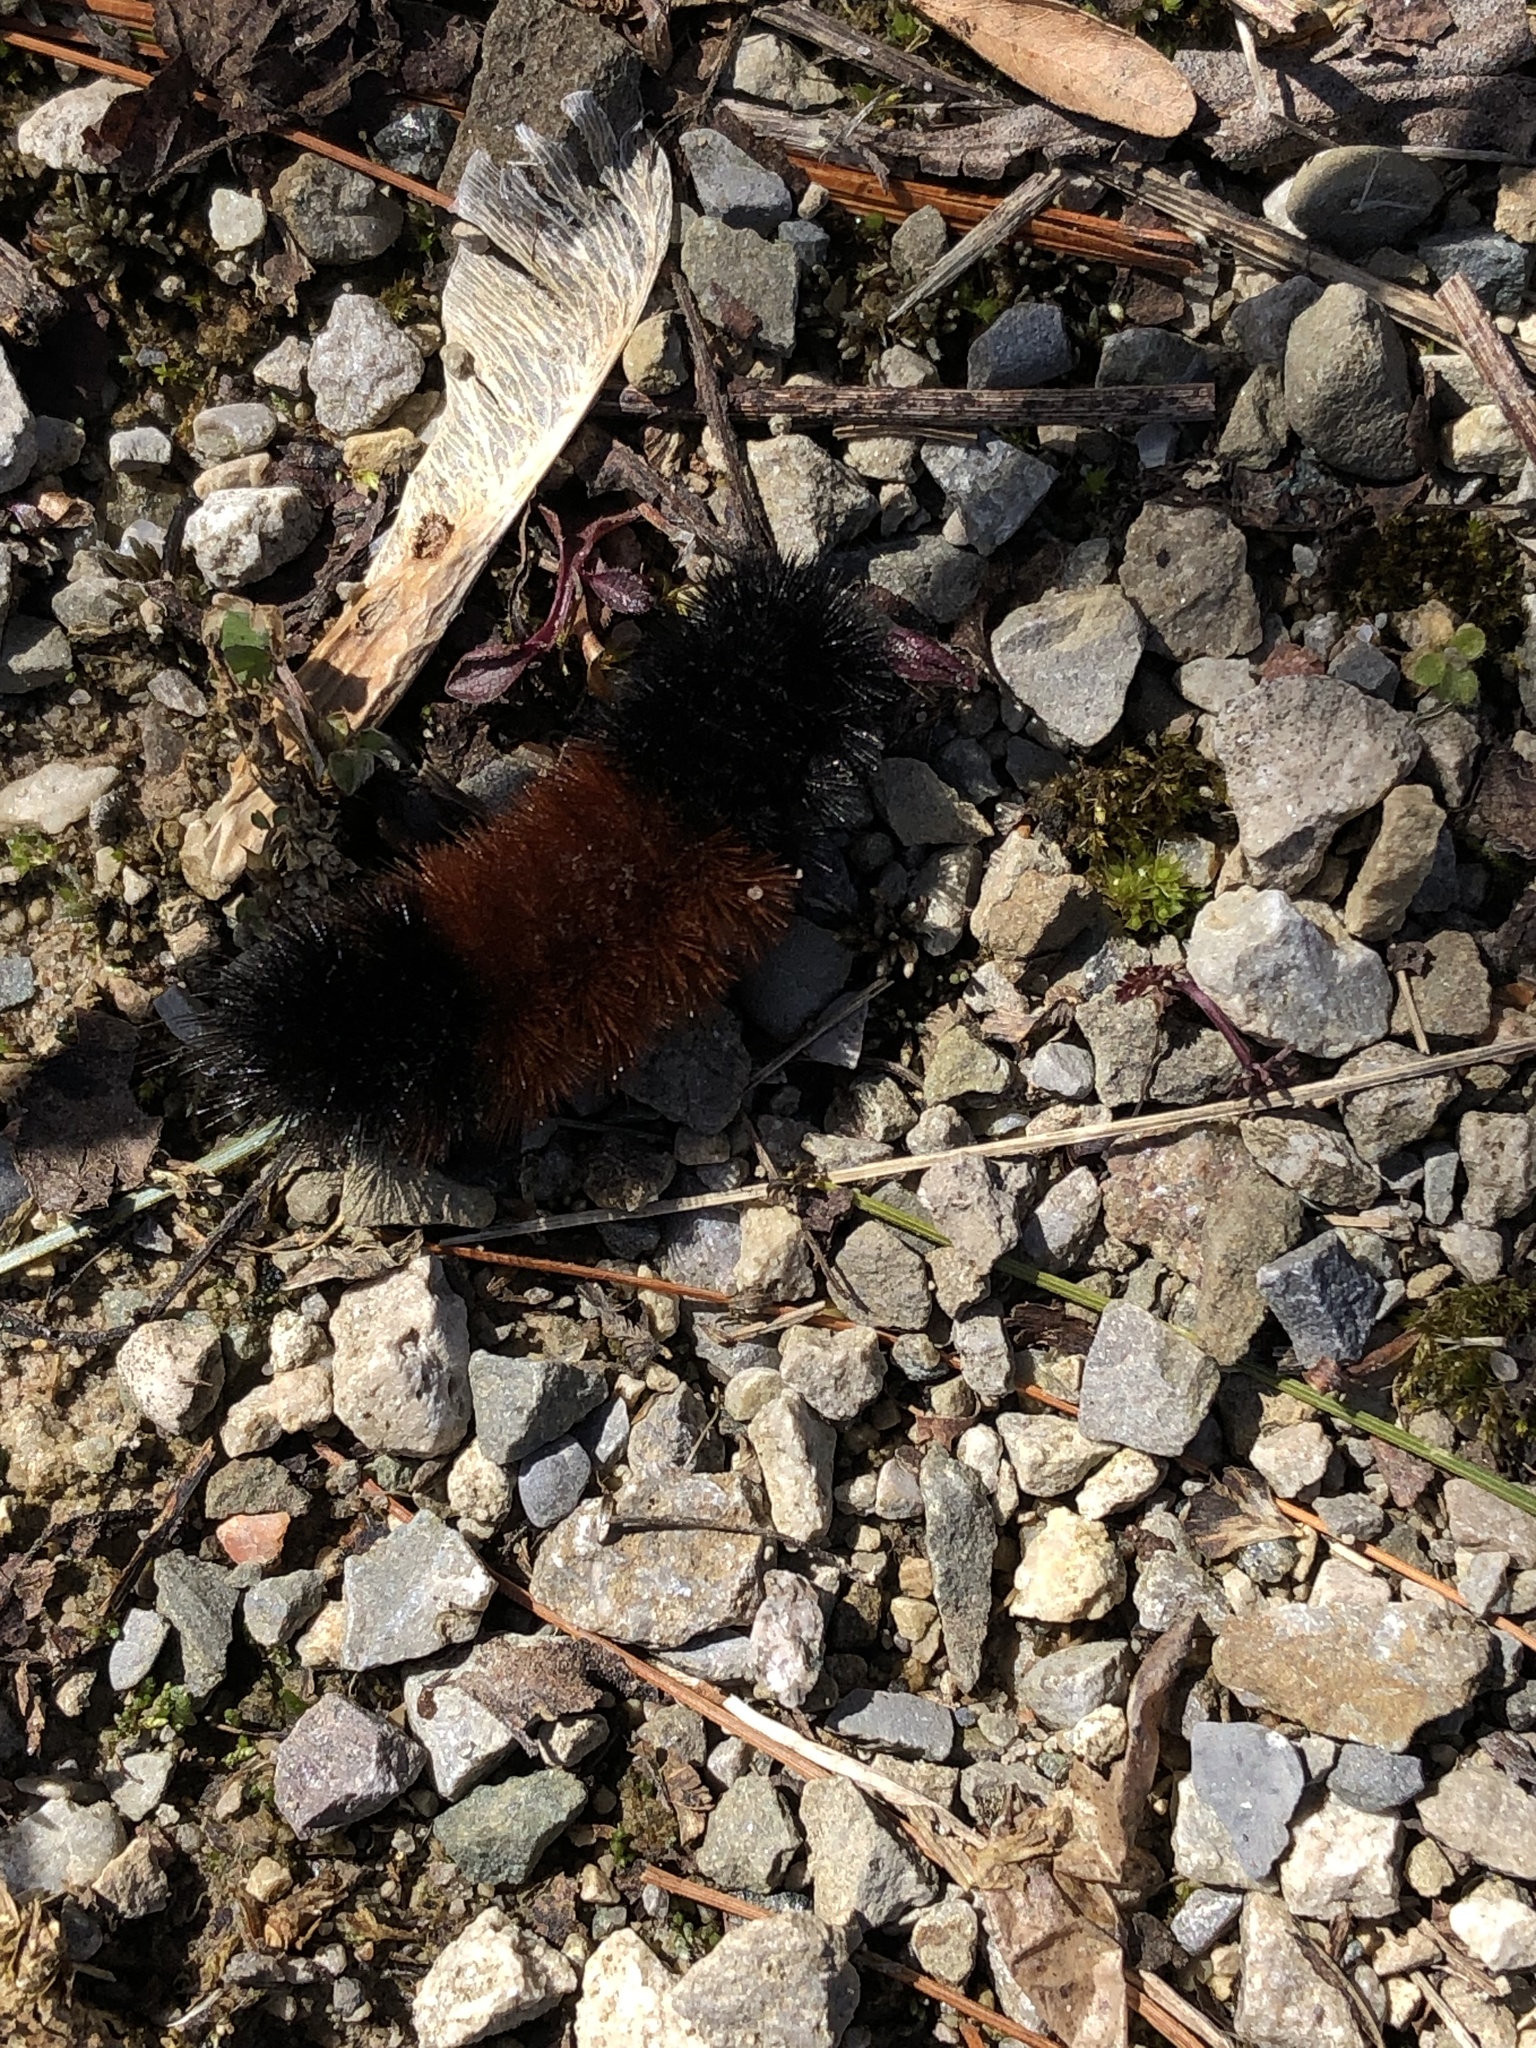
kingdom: Animalia
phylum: Arthropoda
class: Insecta
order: Lepidoptera
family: Erebidae
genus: Pyrrharctia
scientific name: Pyrrharctia isabella
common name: Isabella tiger moth
